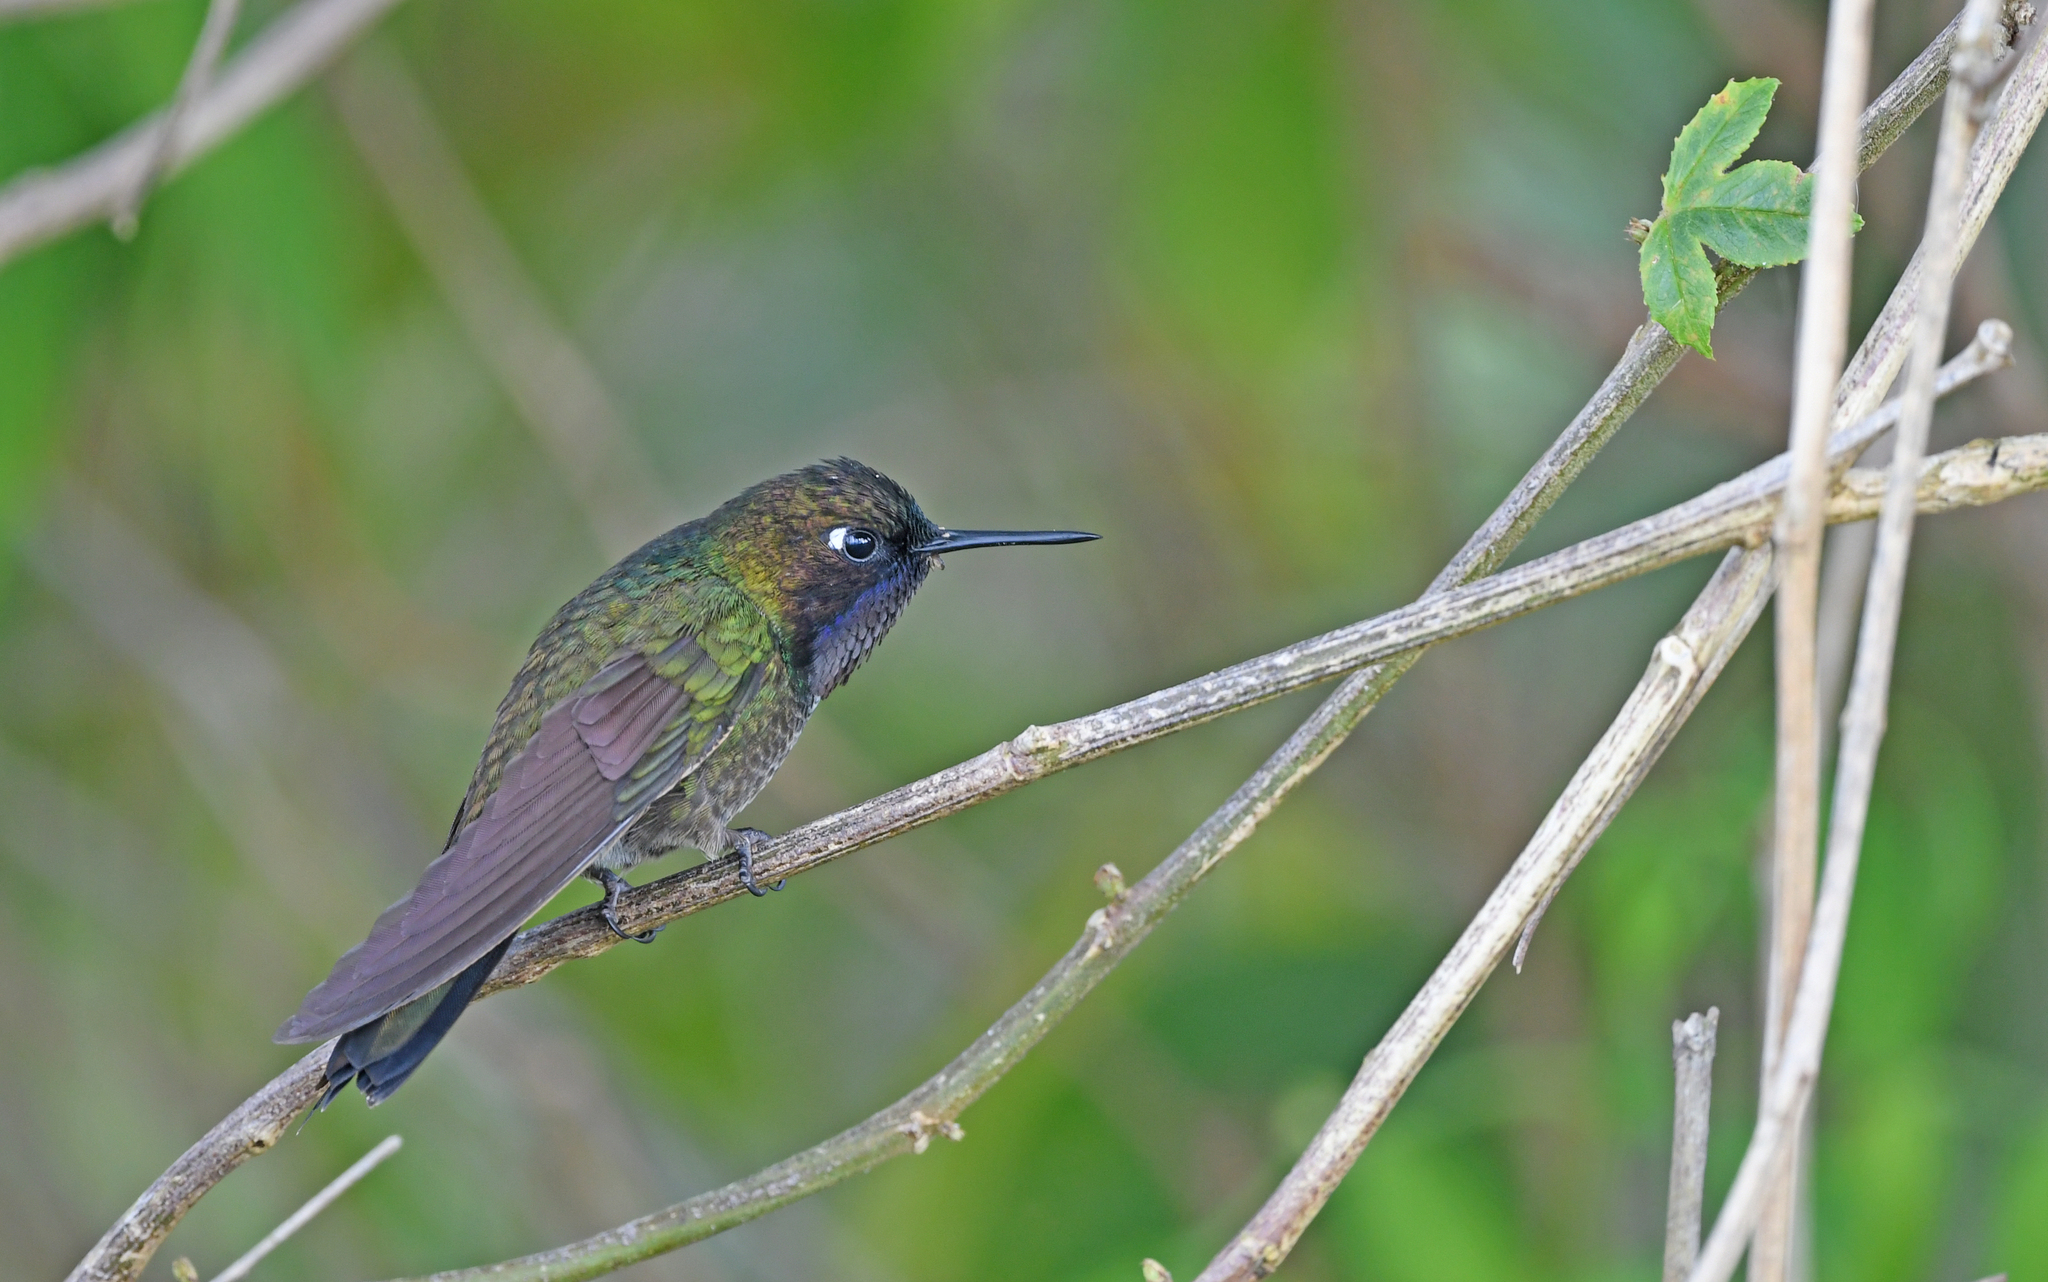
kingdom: Animalia
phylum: Chordata
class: Aves
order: Apodiformes
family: Trochilidae
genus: Heliangelus
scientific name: Heliangelus clarisse
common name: Longuemare's sunangel
